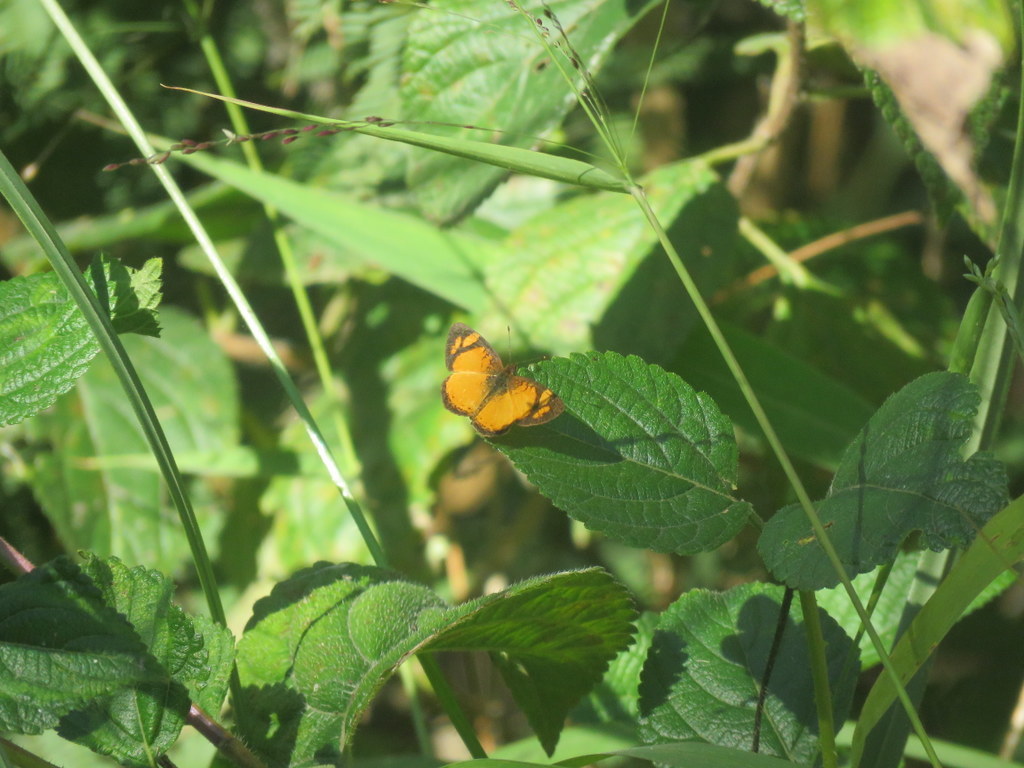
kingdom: Animalia
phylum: Arthropoda
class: Insecta
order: Lepidoptera
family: Nymphalidae
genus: Tegosa
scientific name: Tegosa claudina
